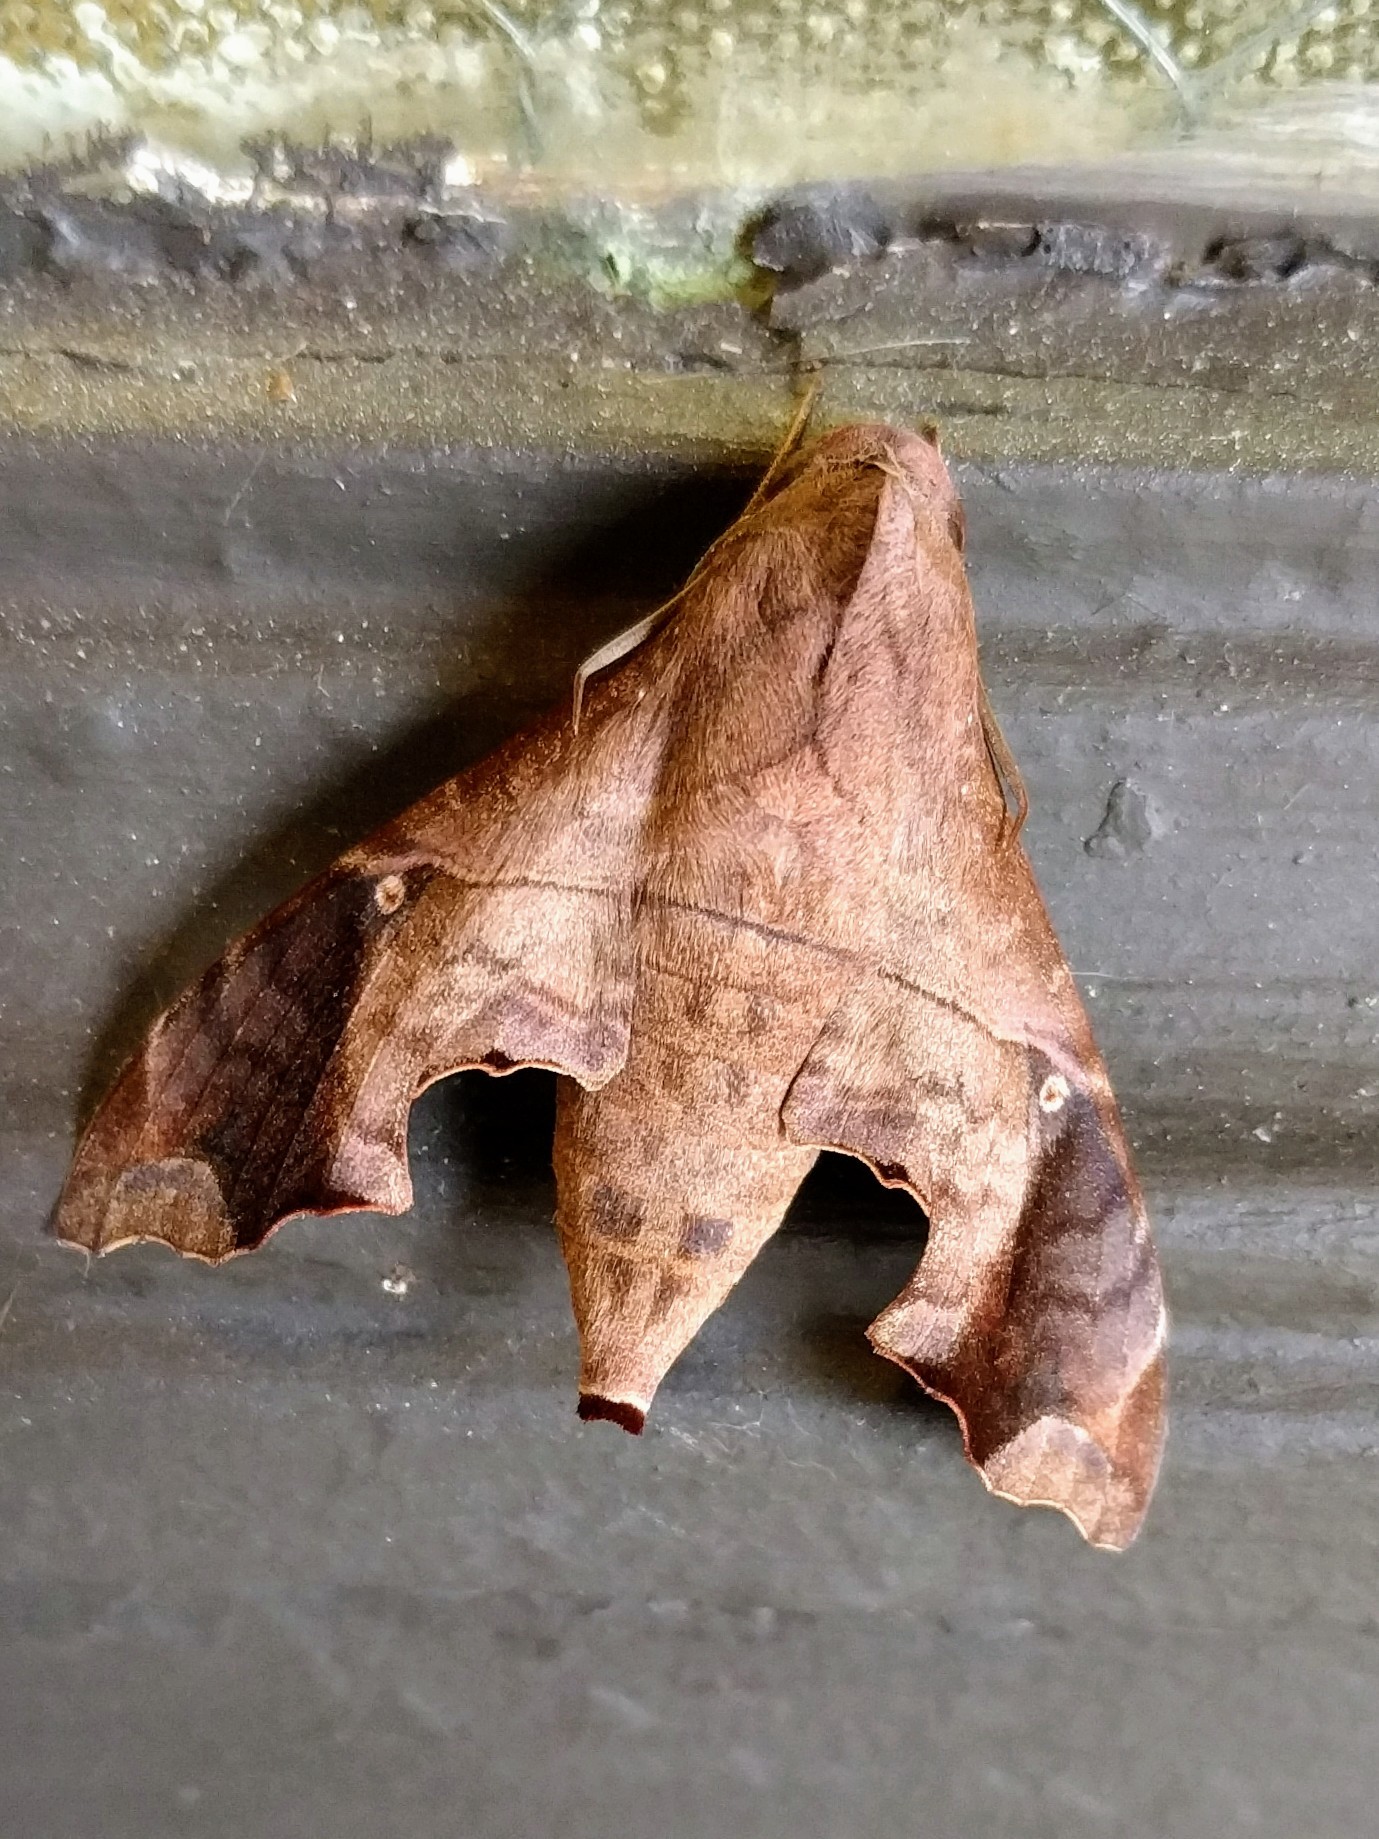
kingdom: Animalia
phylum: Arthropoda
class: Insecta
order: Lepidoptera
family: Sphingidae
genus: Enyo
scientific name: Enyo lugubris
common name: Mournful sphinx
